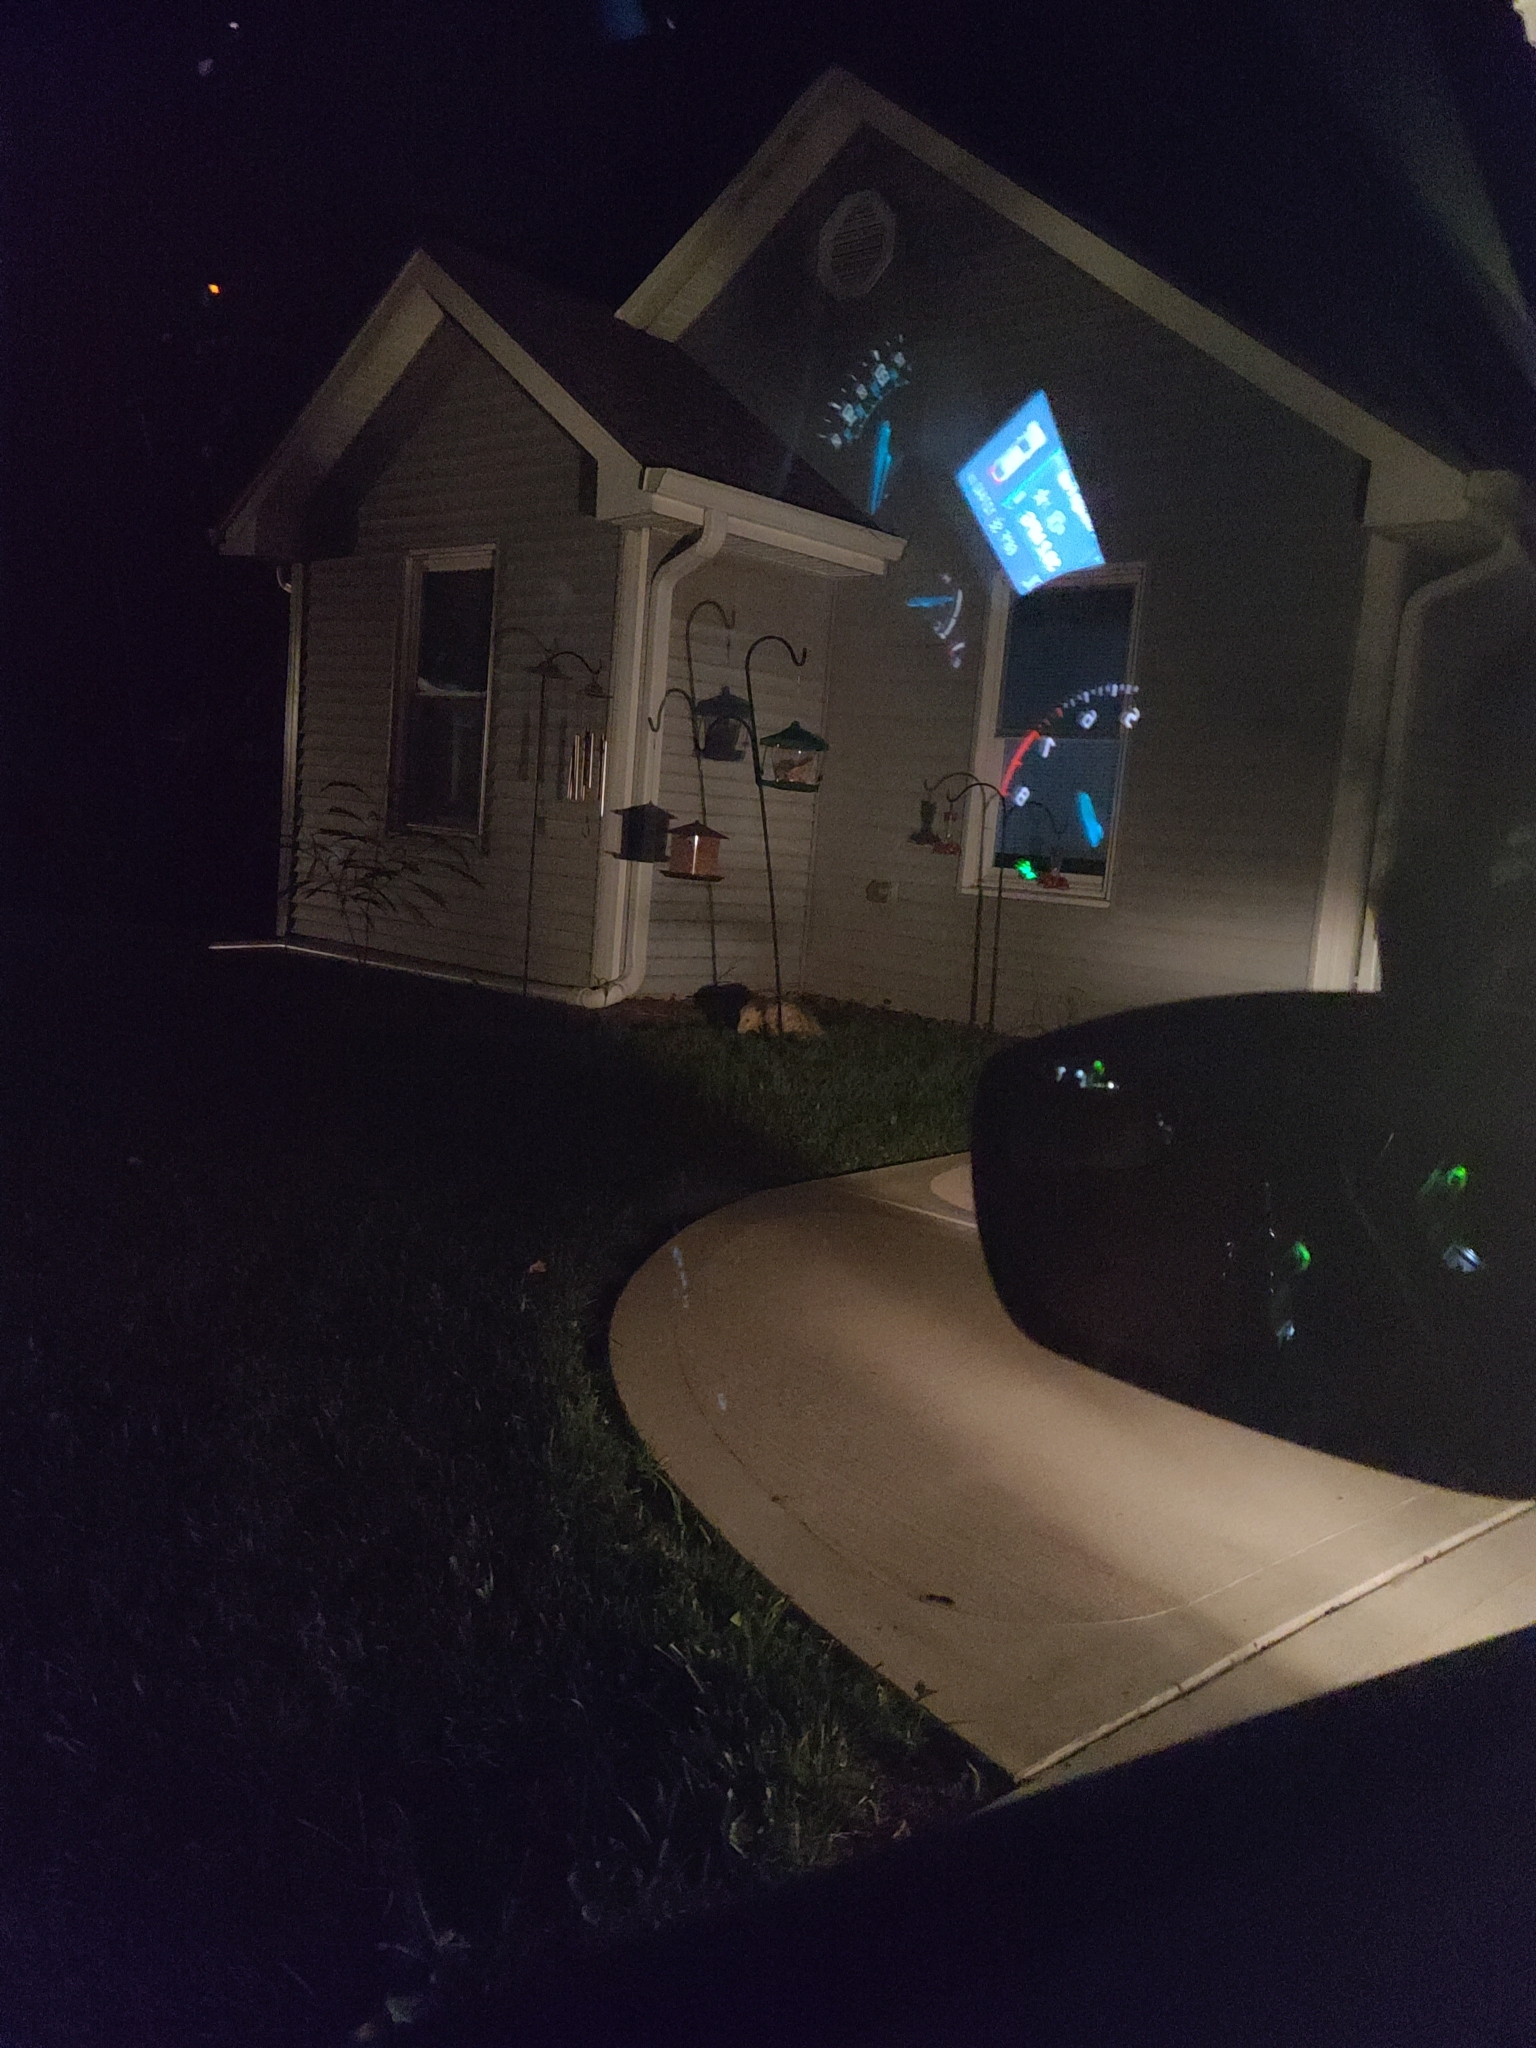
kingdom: Animalia
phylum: Chordata
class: Mammalia
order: Didelphimorphia
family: Didelphidae
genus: Didelphis
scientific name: Didelphis virginiana
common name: Virginia opossum
